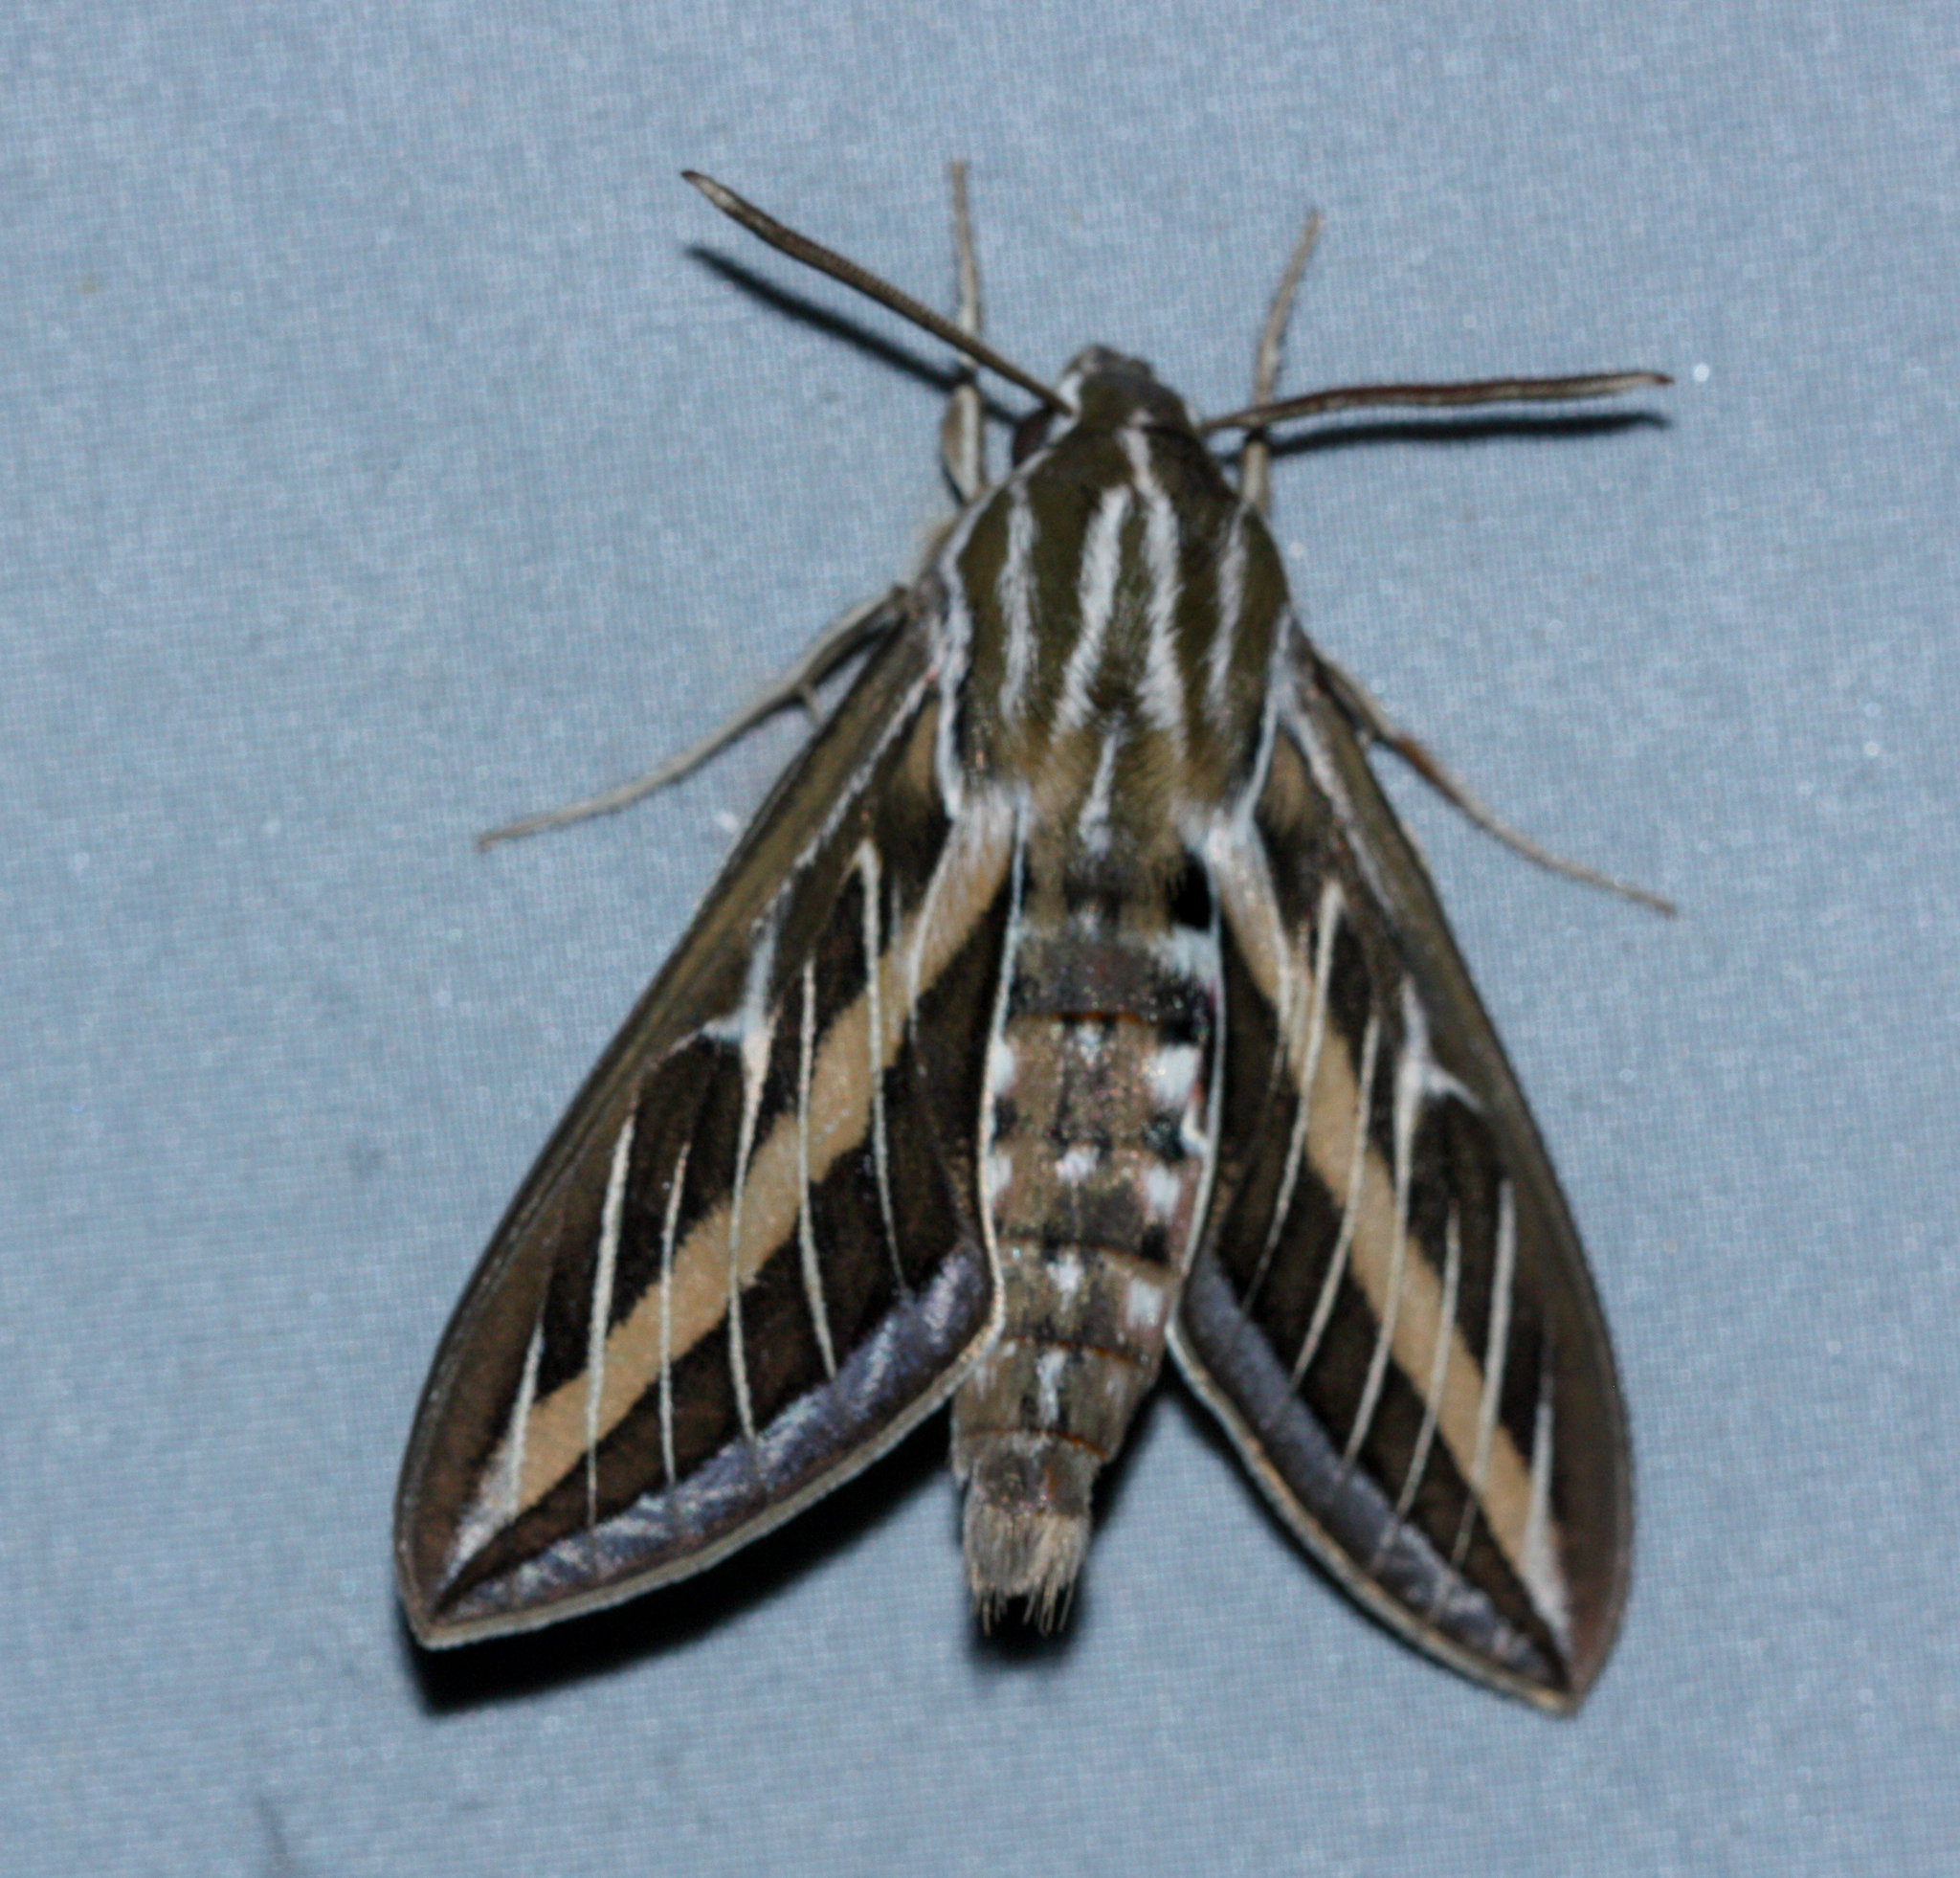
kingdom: Animalia
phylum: Arthropoda
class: Insecta
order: Lepidoptera
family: Sphingidae
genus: Hyles
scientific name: Hyles lineata
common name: White-lined sphinx
